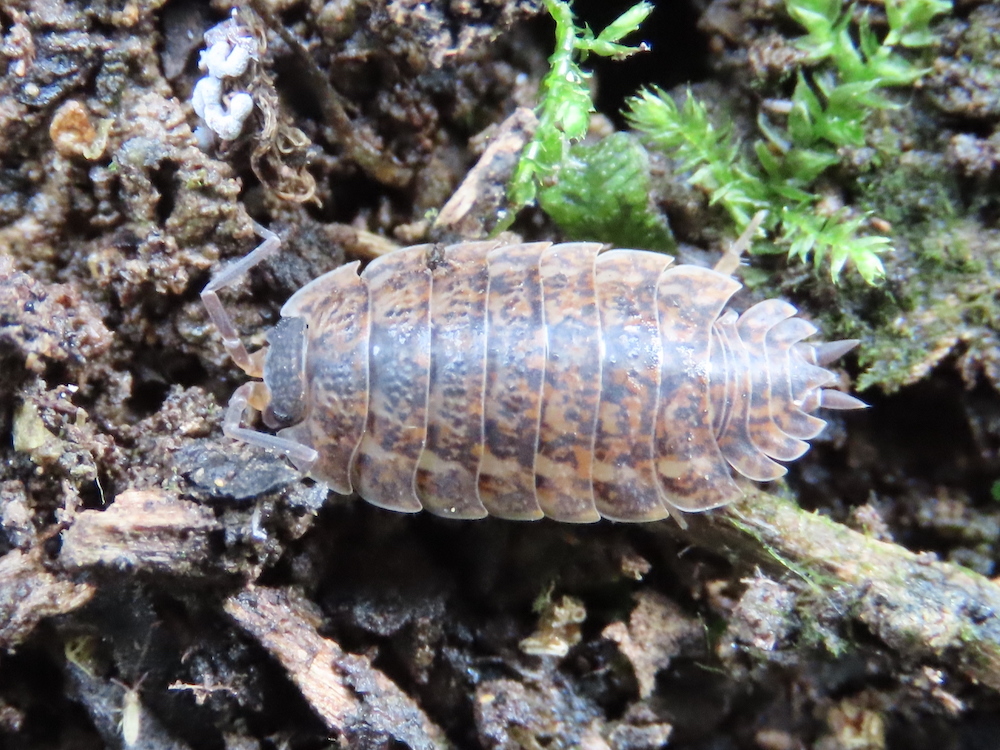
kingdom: Animalia
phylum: Arthropoda
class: Malacostraca
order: Isopoda
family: Trachelipodidae
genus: Trachelipus
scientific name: Trachelipus rathkii
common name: Isopod
